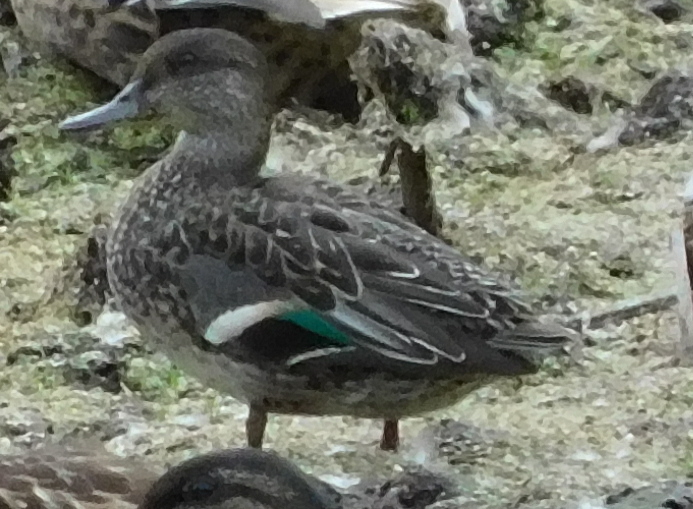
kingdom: Animalia
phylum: Chordata
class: Aves
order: Anseriformes
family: Anatidae
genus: Anas
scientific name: Anas crecca
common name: Eurasian teal
